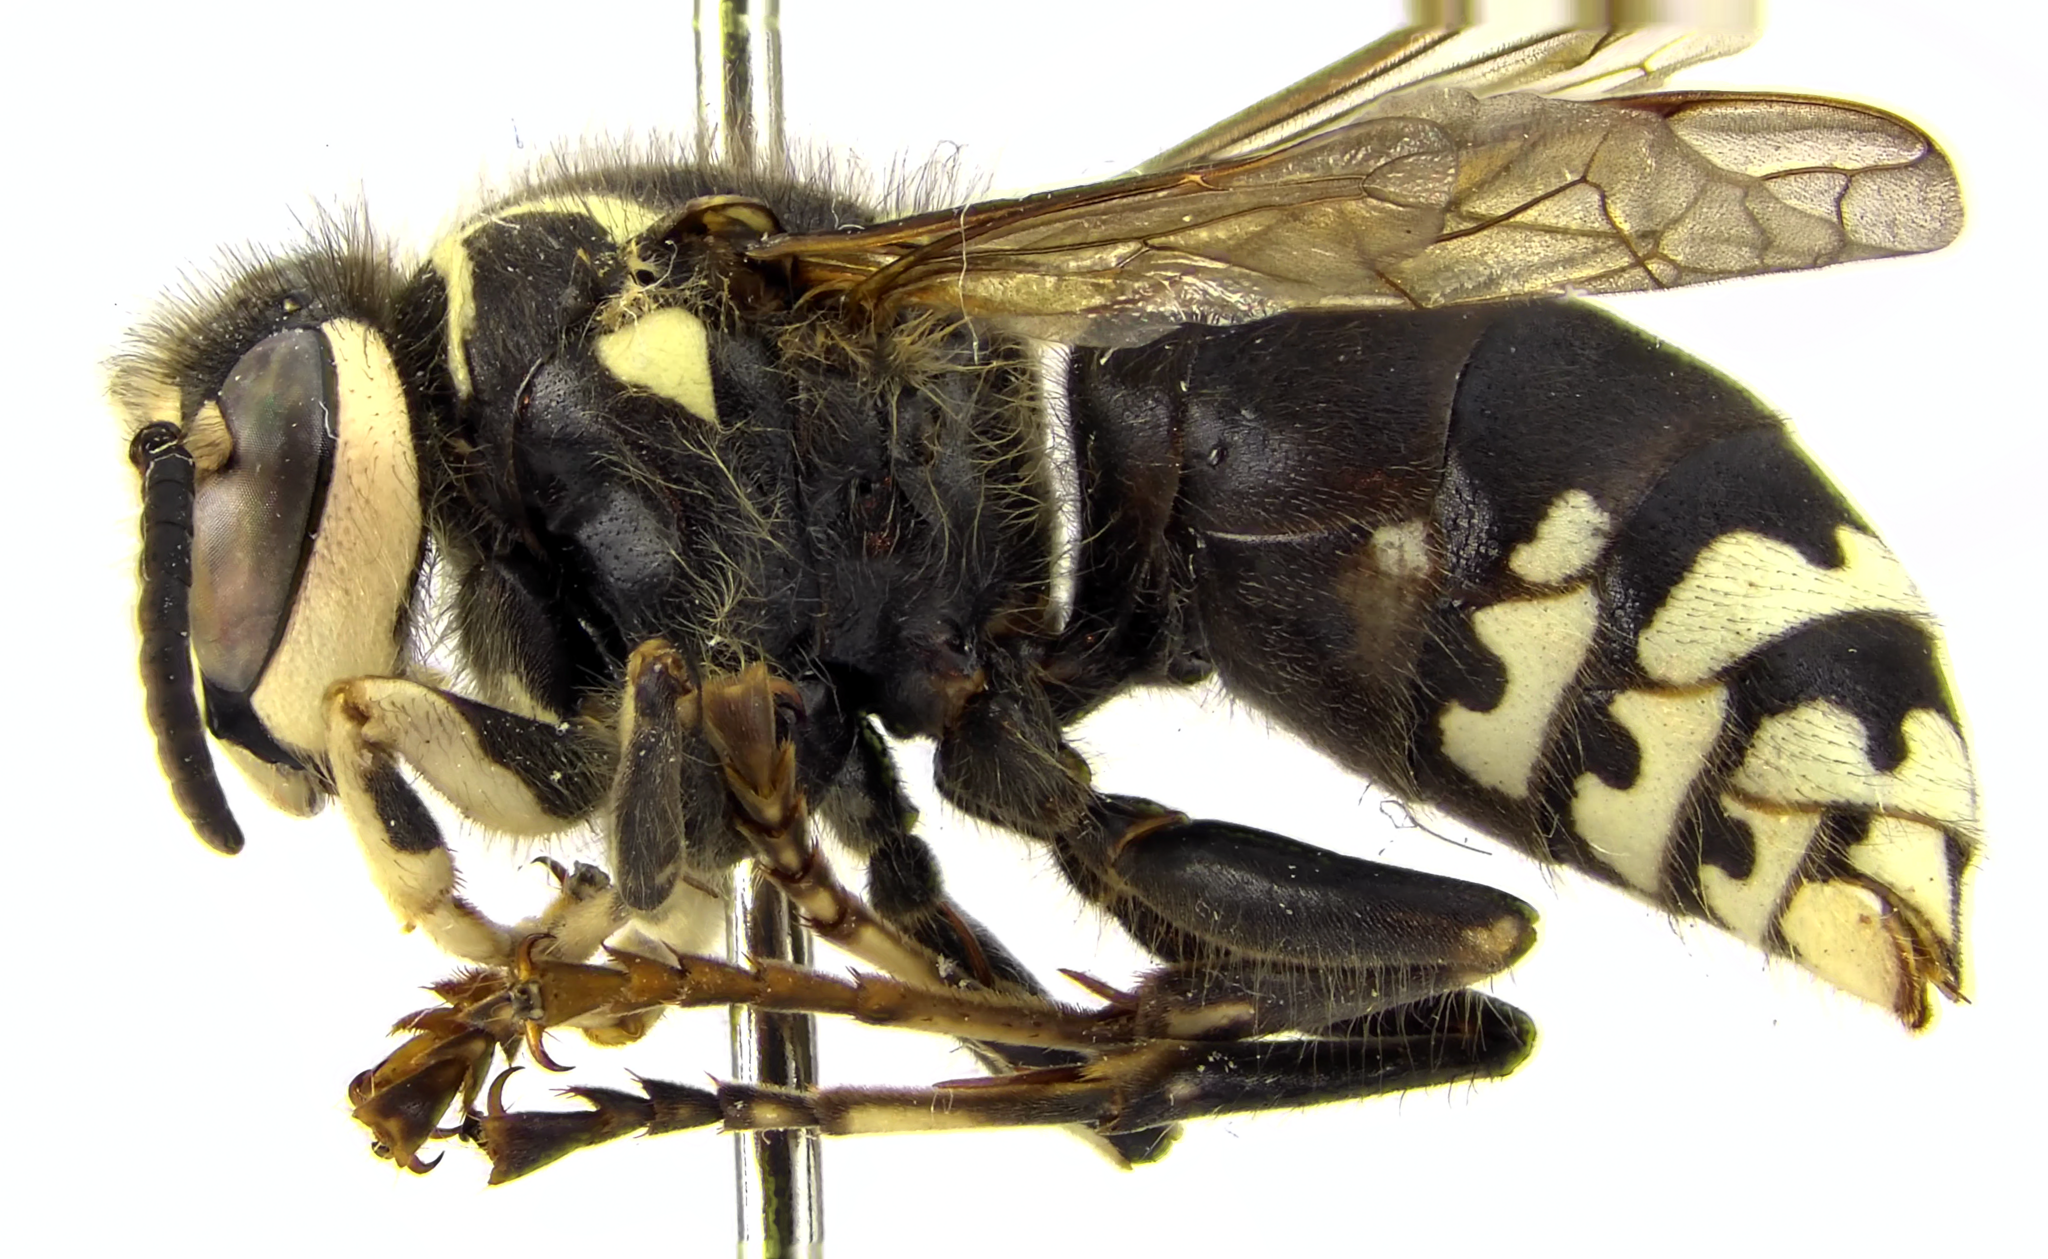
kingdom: Animalia
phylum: Arthropoda
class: Insecta
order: Hymenoptera
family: Vespidae
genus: Dolichovespula
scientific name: Dolichovespula maculata
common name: Bald-faced hornet
